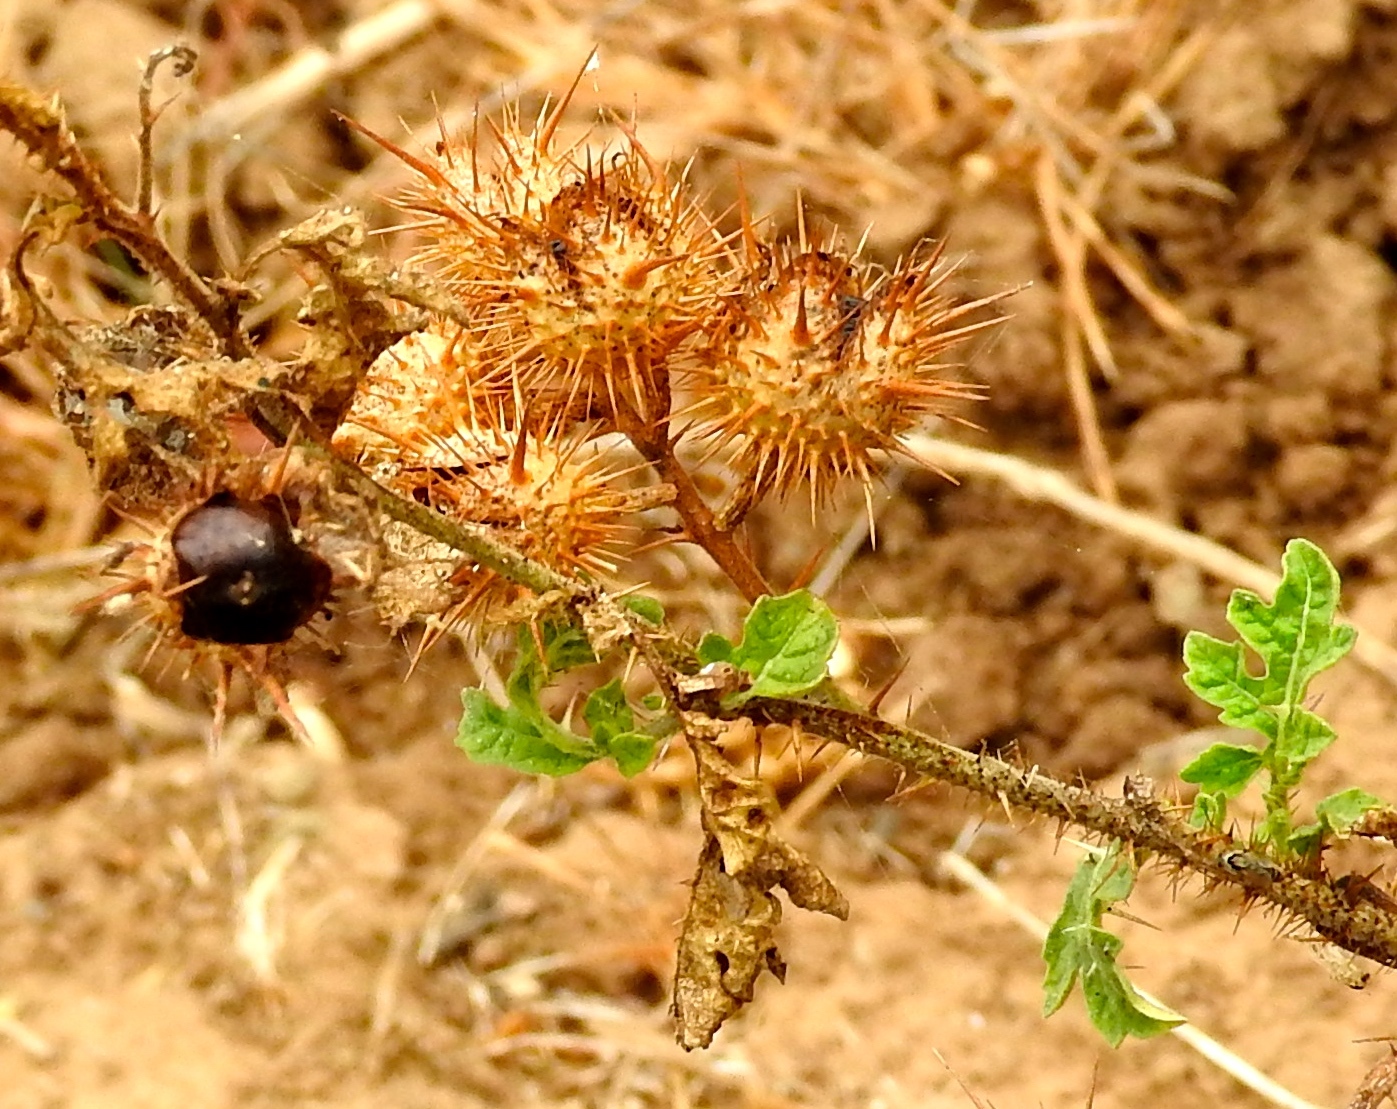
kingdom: Plantae
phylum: Tracheophyta
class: Magnoliopsida
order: Solanales
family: Solanaceae
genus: Solanum
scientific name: Solanum grayi
